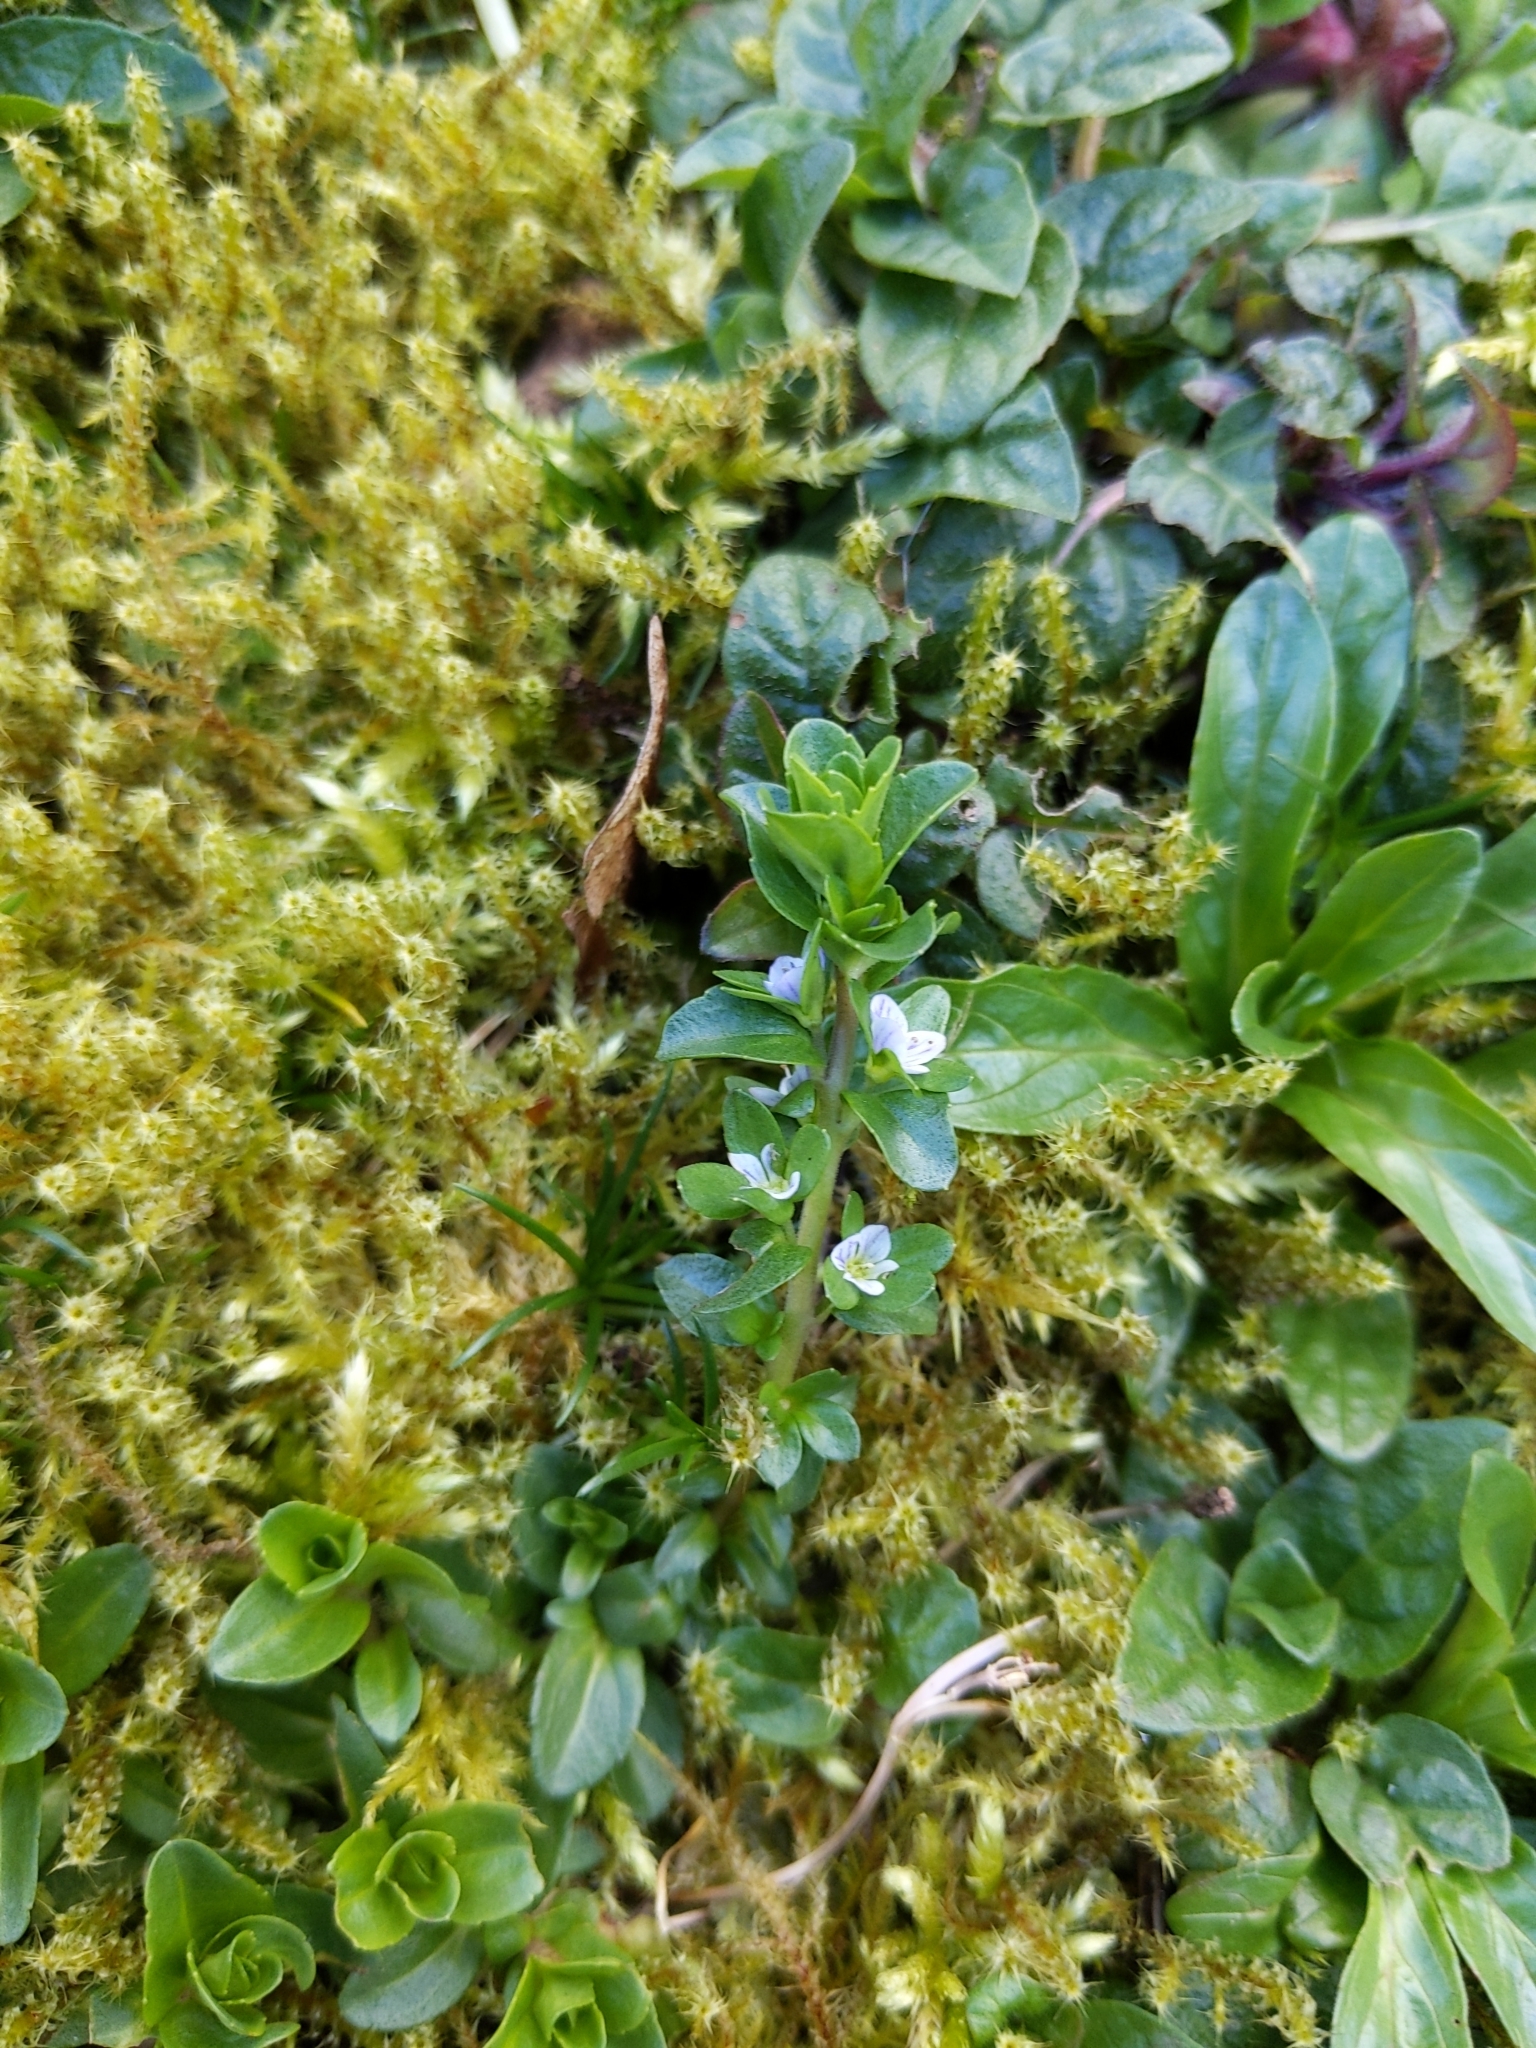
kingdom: Plantae
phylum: Tracheophyta
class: Magnoliopsida
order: Lamiales
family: Plantaginaceae
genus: Veronica
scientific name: Veronica serpyllifolia
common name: Thyme-leaved speedwell
